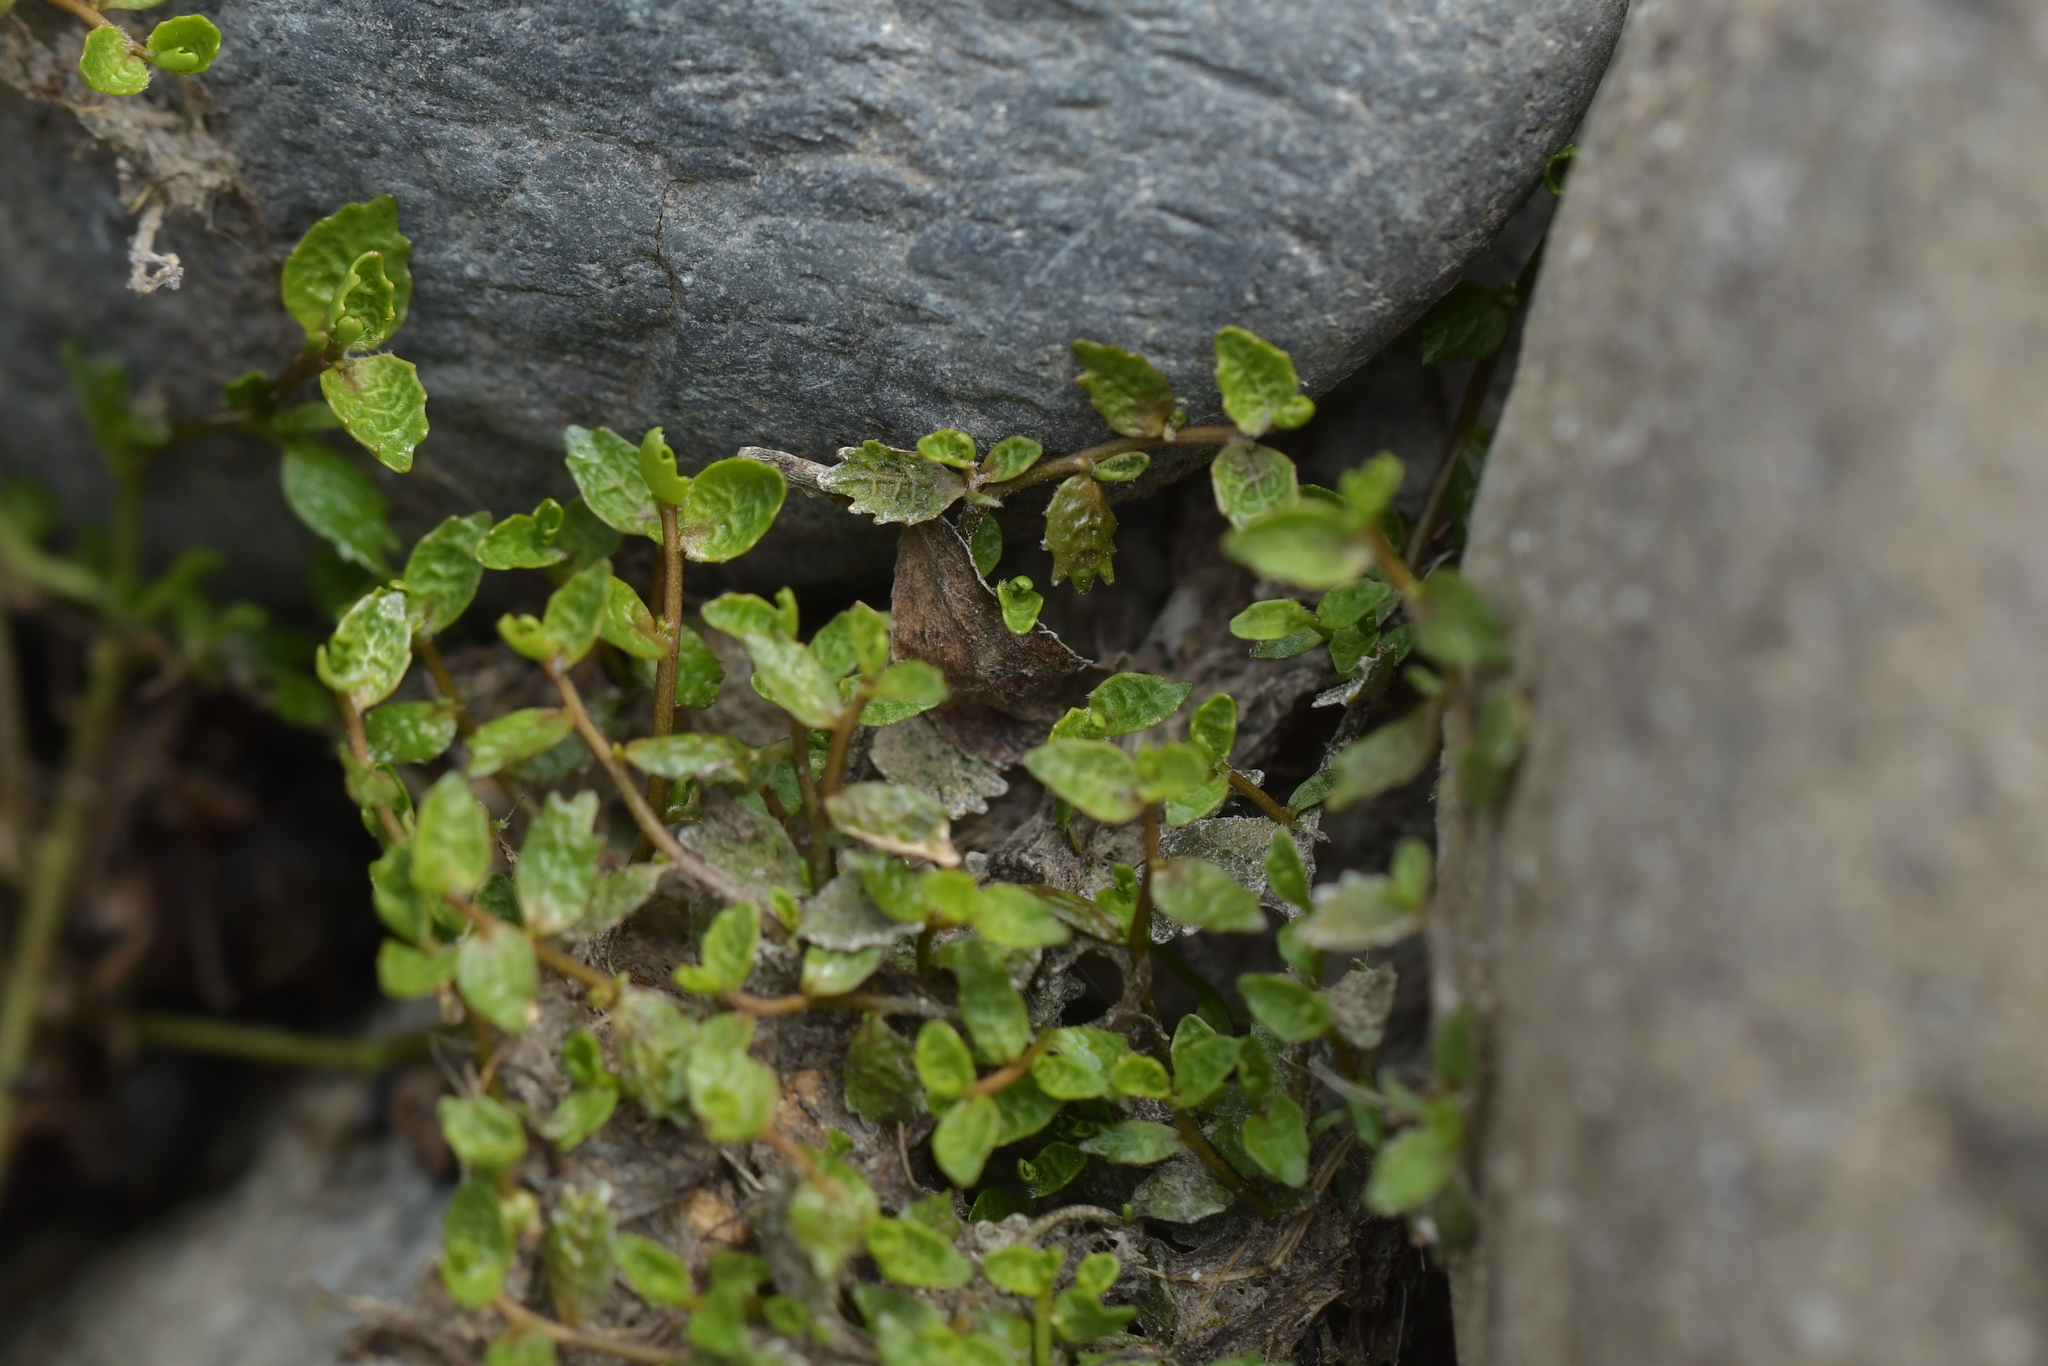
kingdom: Plantae
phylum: Tracheophyta
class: Magnoliopsida
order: Asterales
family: Campanulaceae
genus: Lobelia
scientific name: Lobelia perpusilla
